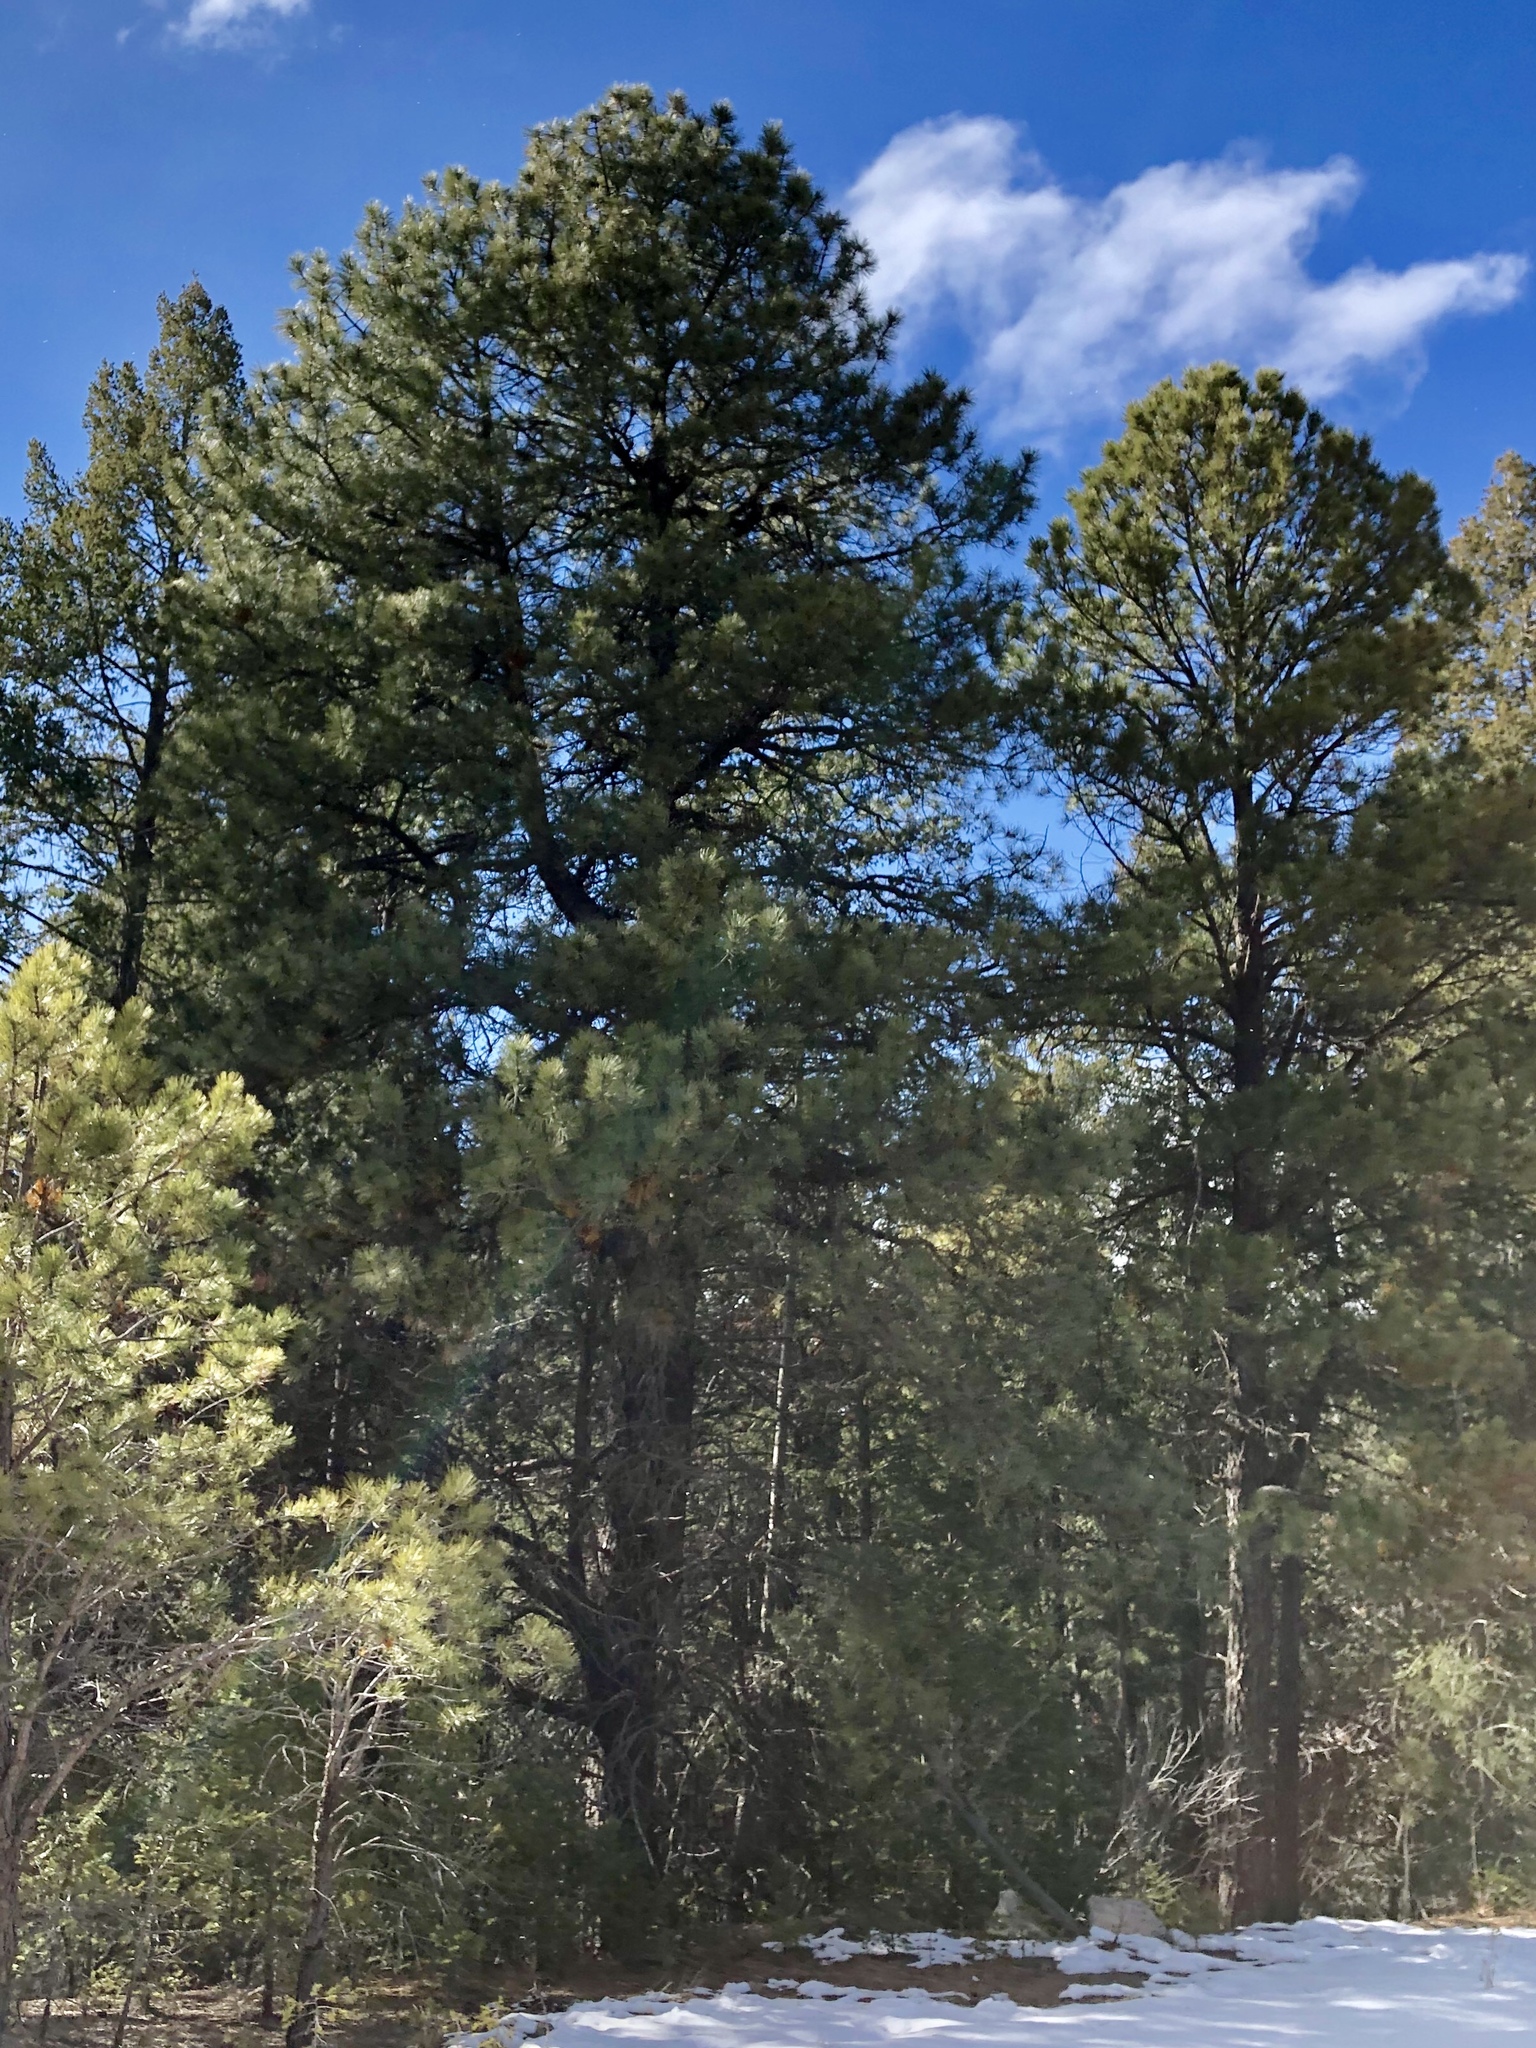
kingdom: Plantae
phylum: Tracheophyta
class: Pinopsida
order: Pinales
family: Pinaceae
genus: Pinus
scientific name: Pinus ponderosa
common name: Western yellow-pine
